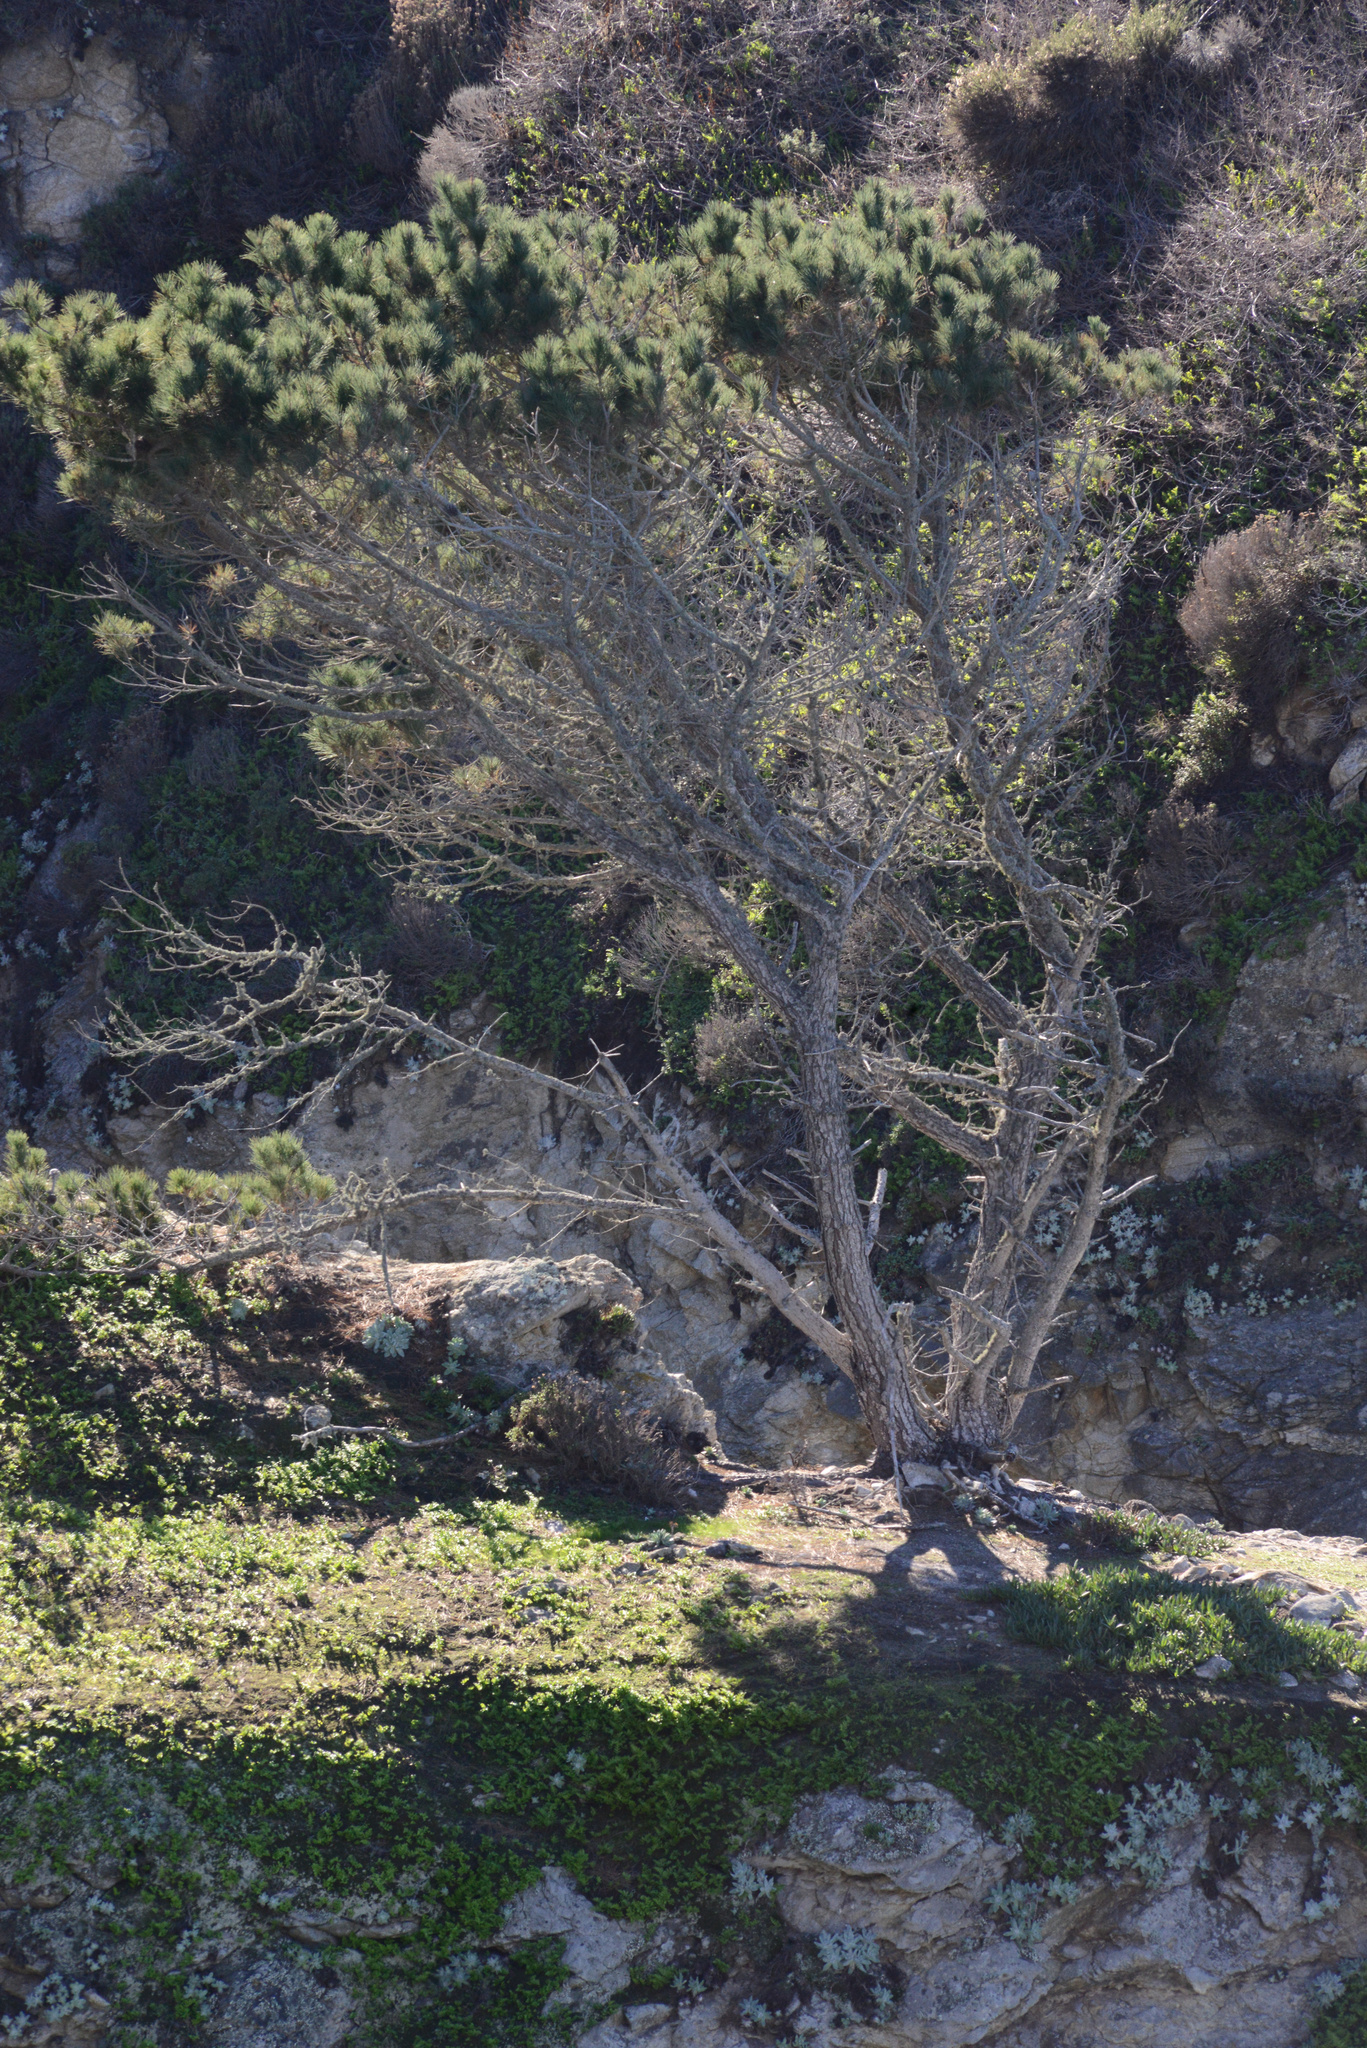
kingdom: Plantae
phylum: Tracheophyta
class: Pinopsida
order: Pinales
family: Pinaceae
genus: Pinus
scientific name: Pinus radiata
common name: Monterey pine
